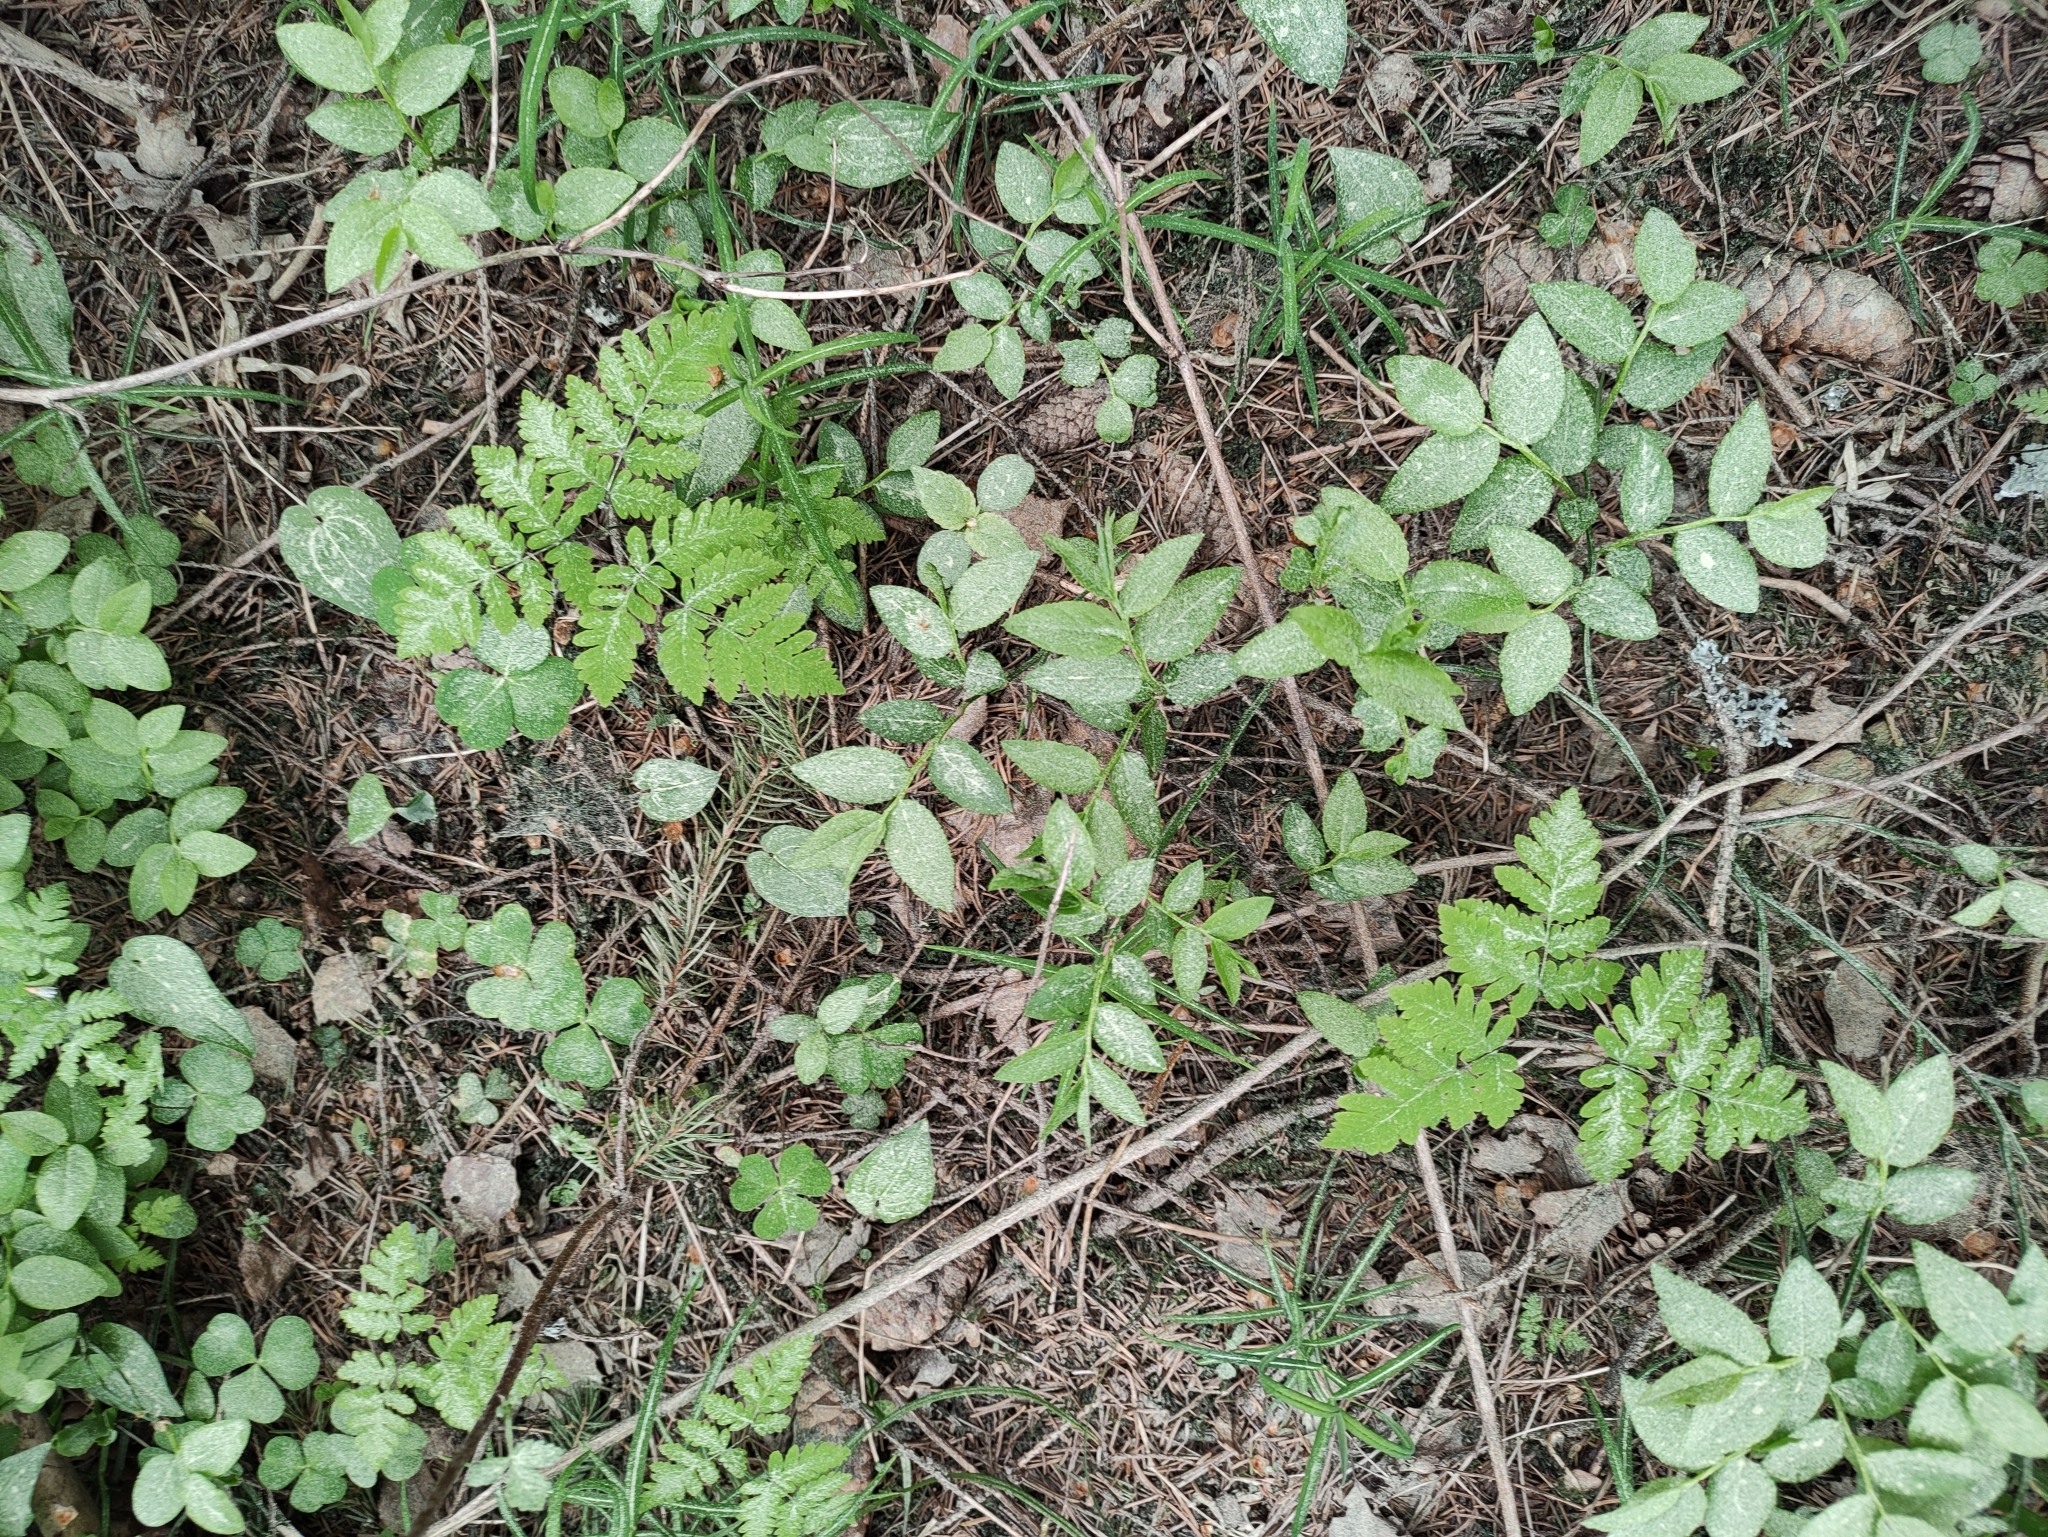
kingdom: Plantae
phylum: Tracheophyta
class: Polypodiopsida
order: Polypodiales
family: Cystopteridaceae
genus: Gymnocarpium
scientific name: Gymnocarpium dryopteris
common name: Oak fern
